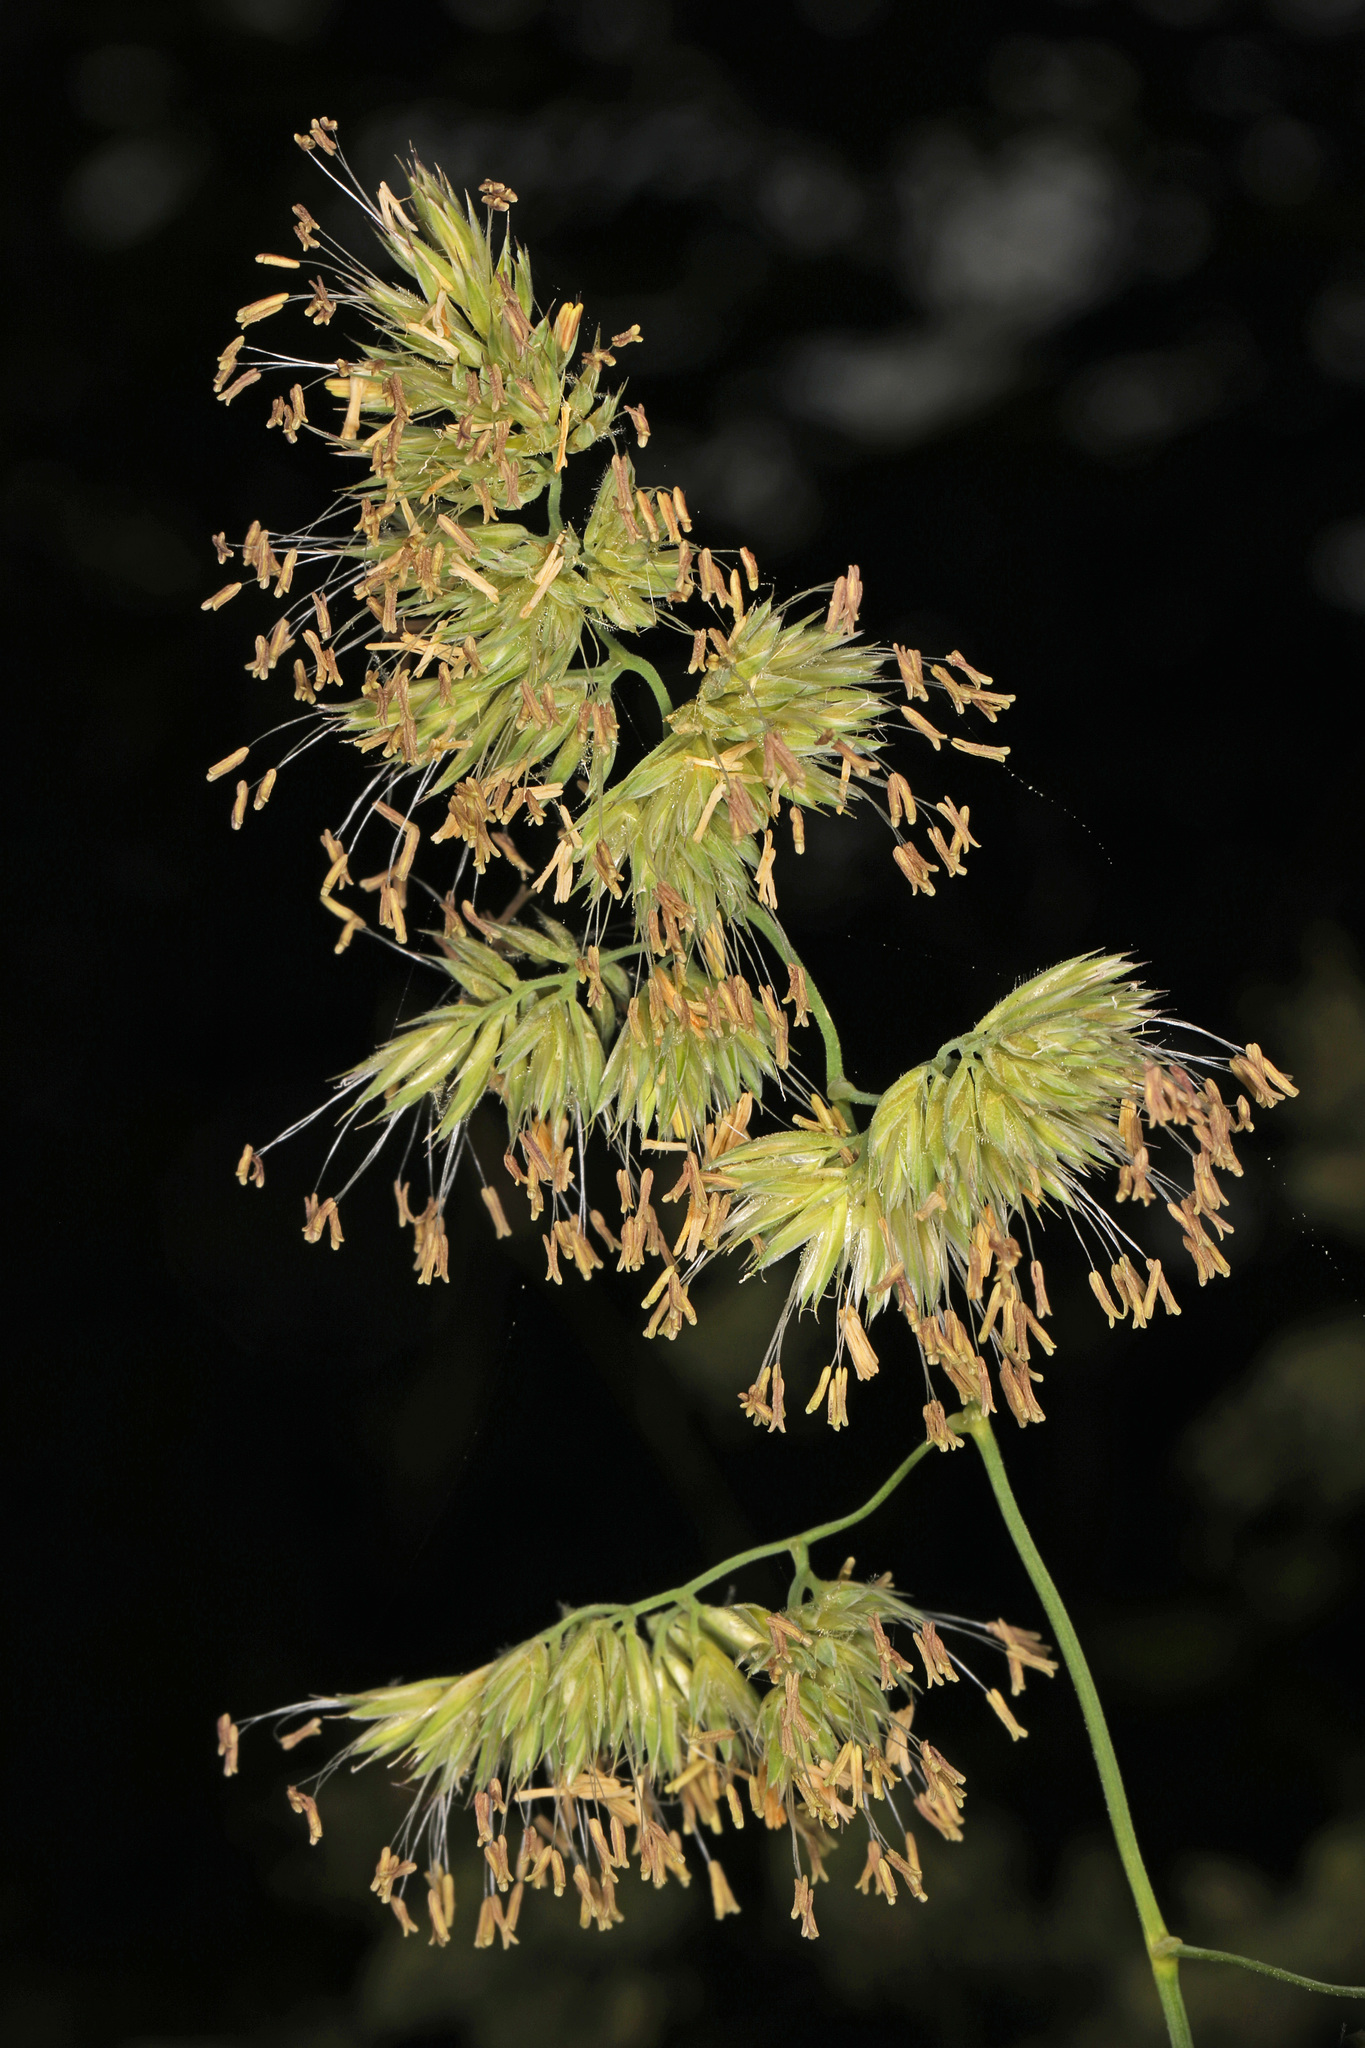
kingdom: Plantae
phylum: Tracheophyta
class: Liliopsida
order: Poales
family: Poaceae
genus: Dactylis
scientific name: Dactylis glomerata
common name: Orchardgrass
